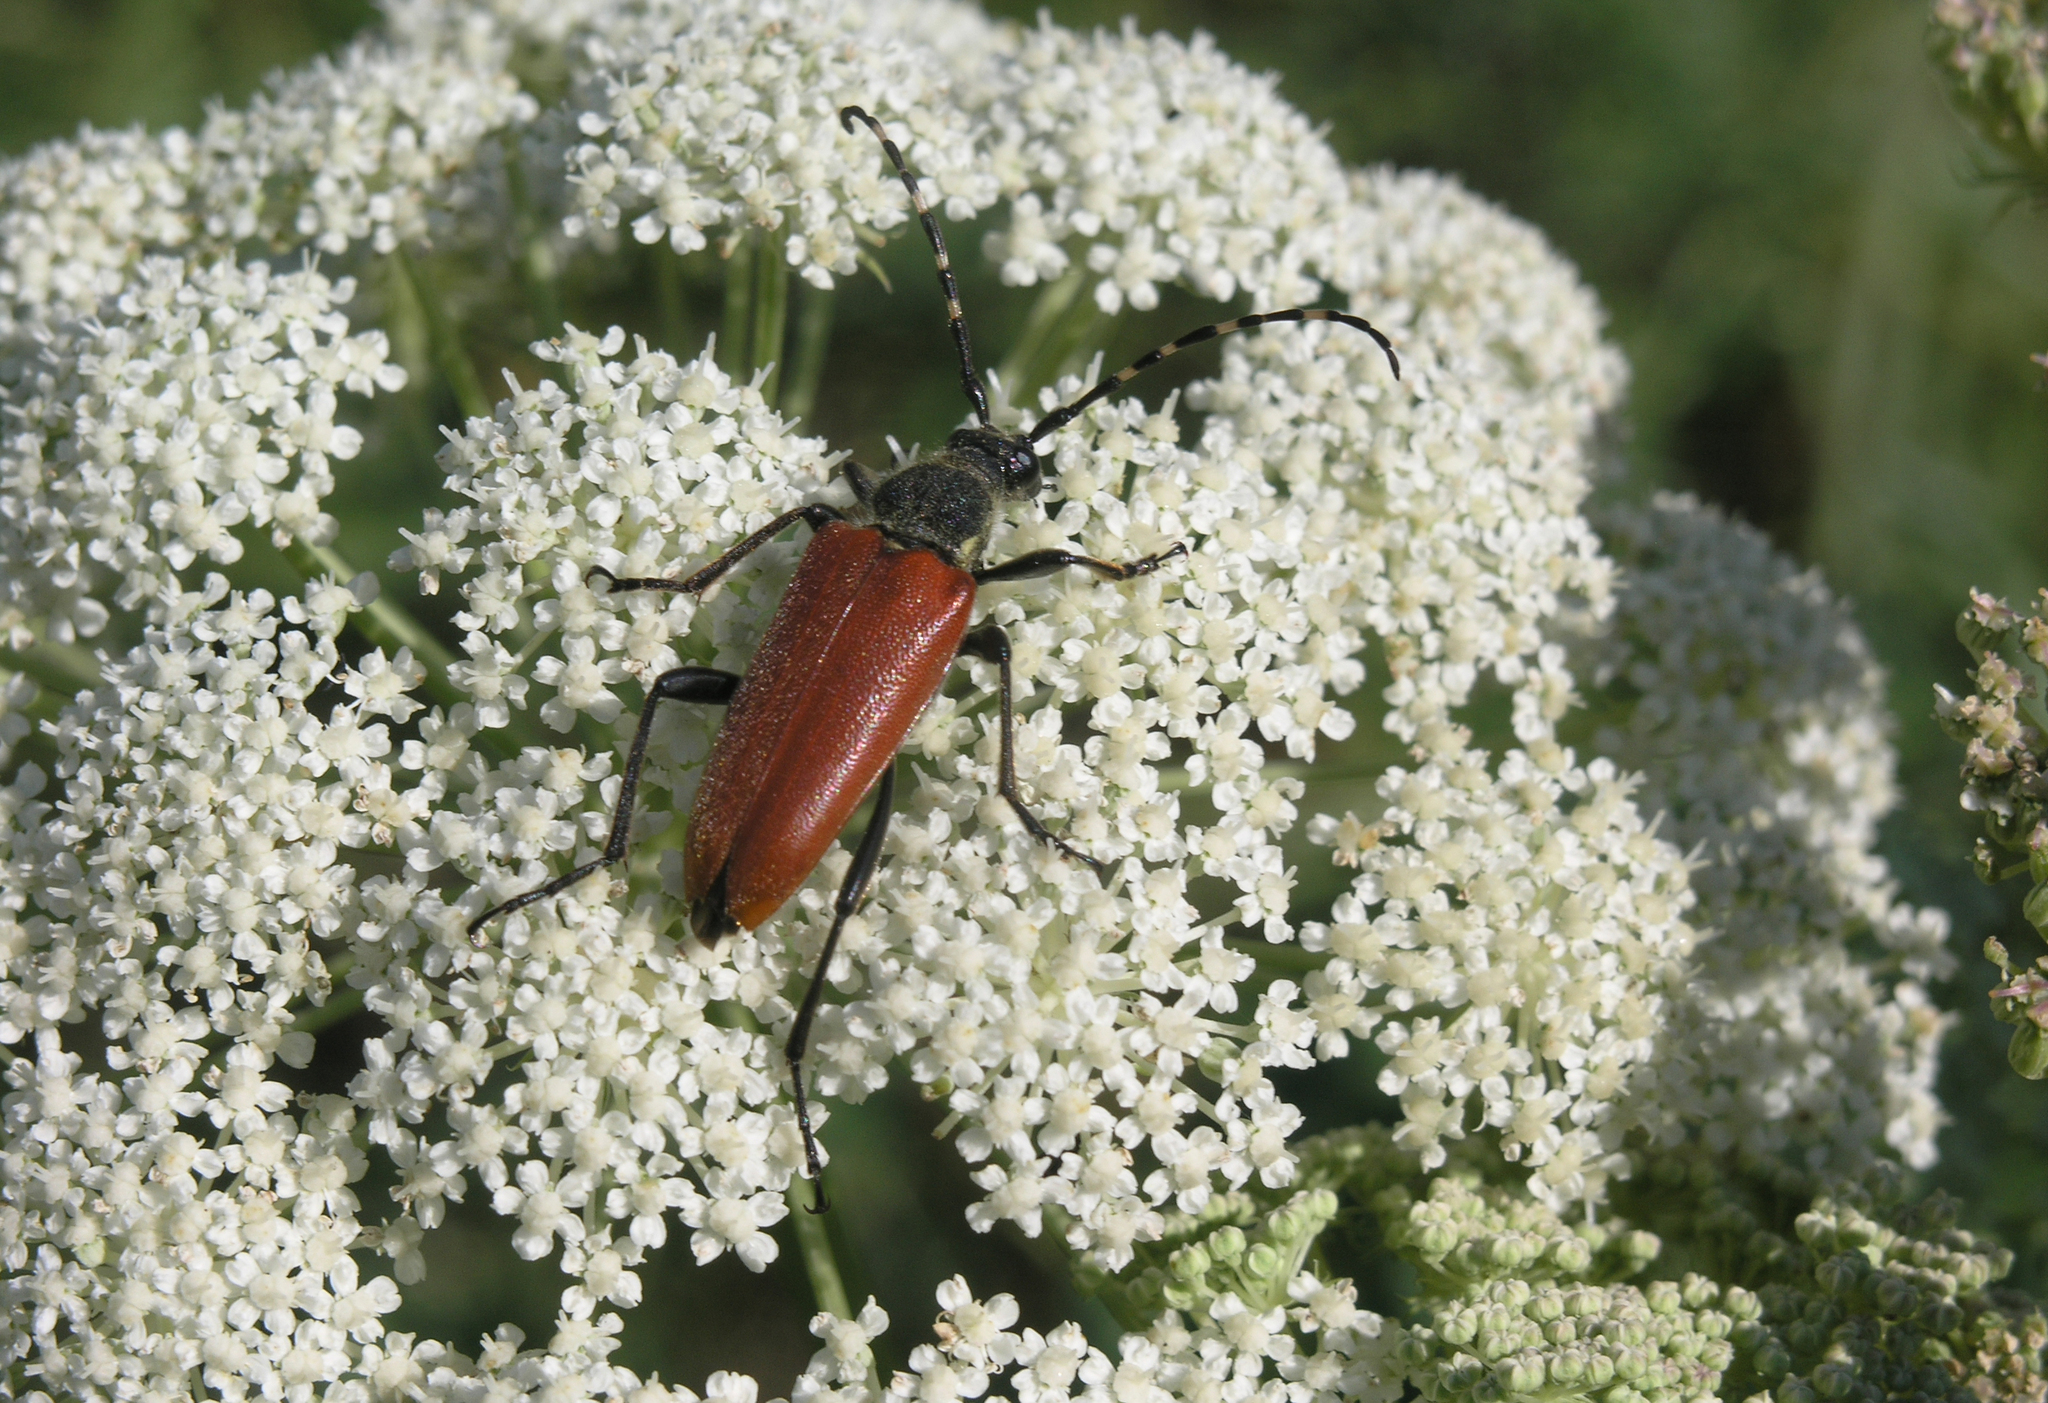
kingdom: Animalia
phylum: Arthropoda
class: Insecta
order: Coleoptera
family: Cerambycidae
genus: Stictoleptura
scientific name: Stictoleptura variicornis
